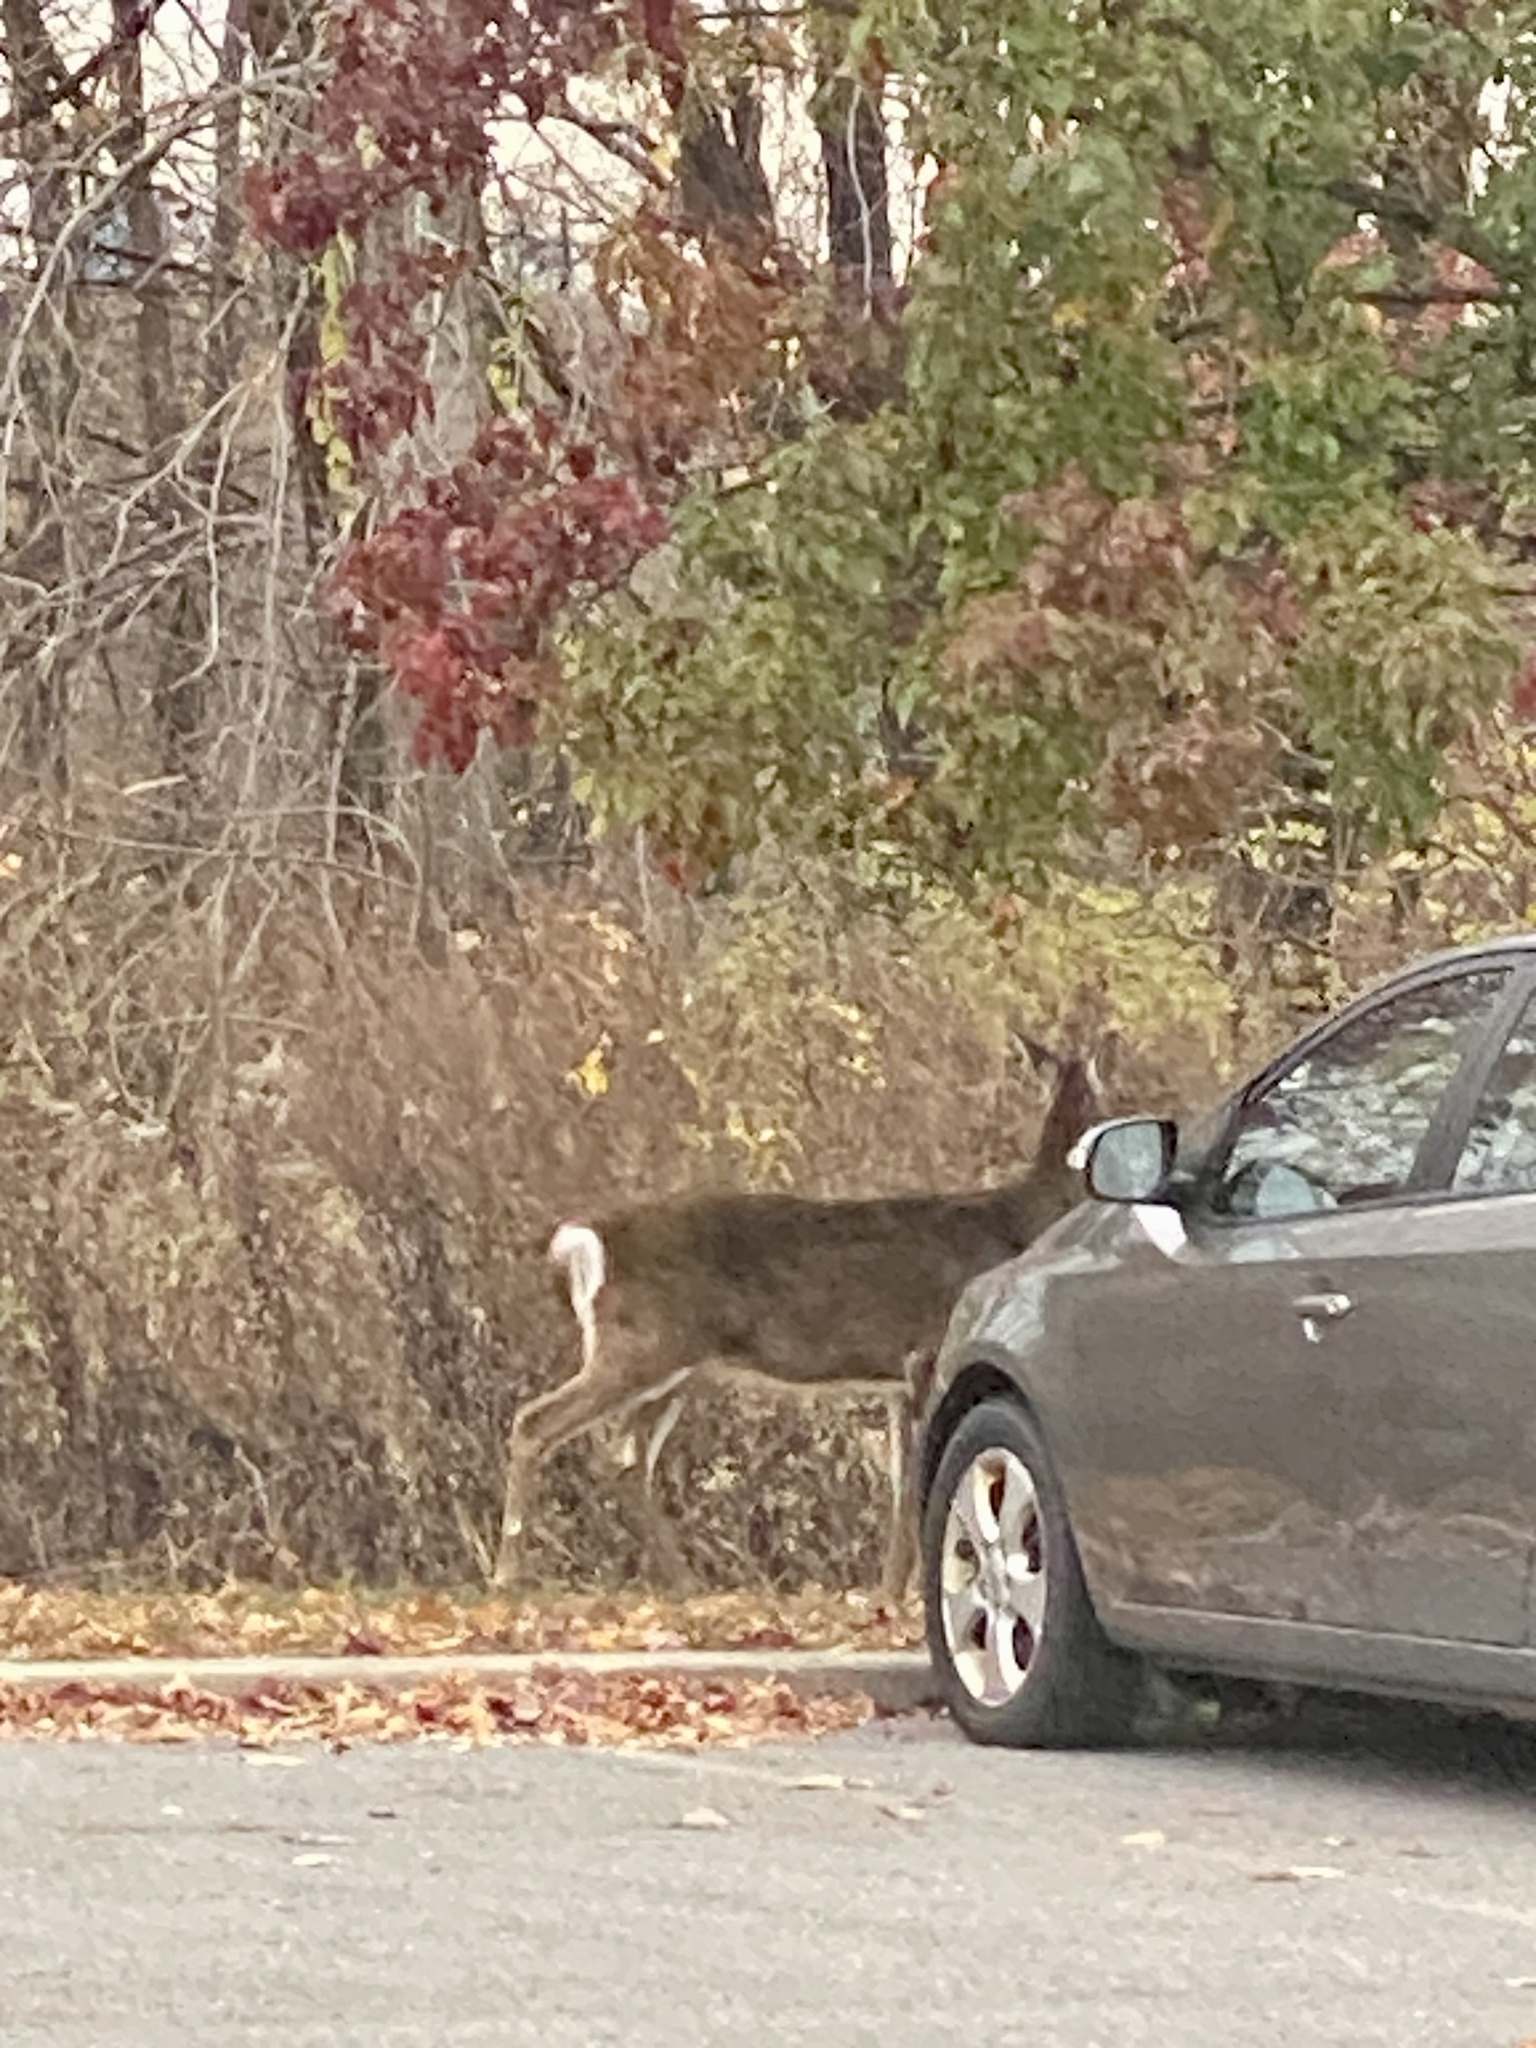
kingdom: Animalia
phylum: Chordata
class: Mammalia
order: Artiodactyla
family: Cervidae
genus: Odocoileus
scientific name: Odocoileus virginianus
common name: White-tailed deer
